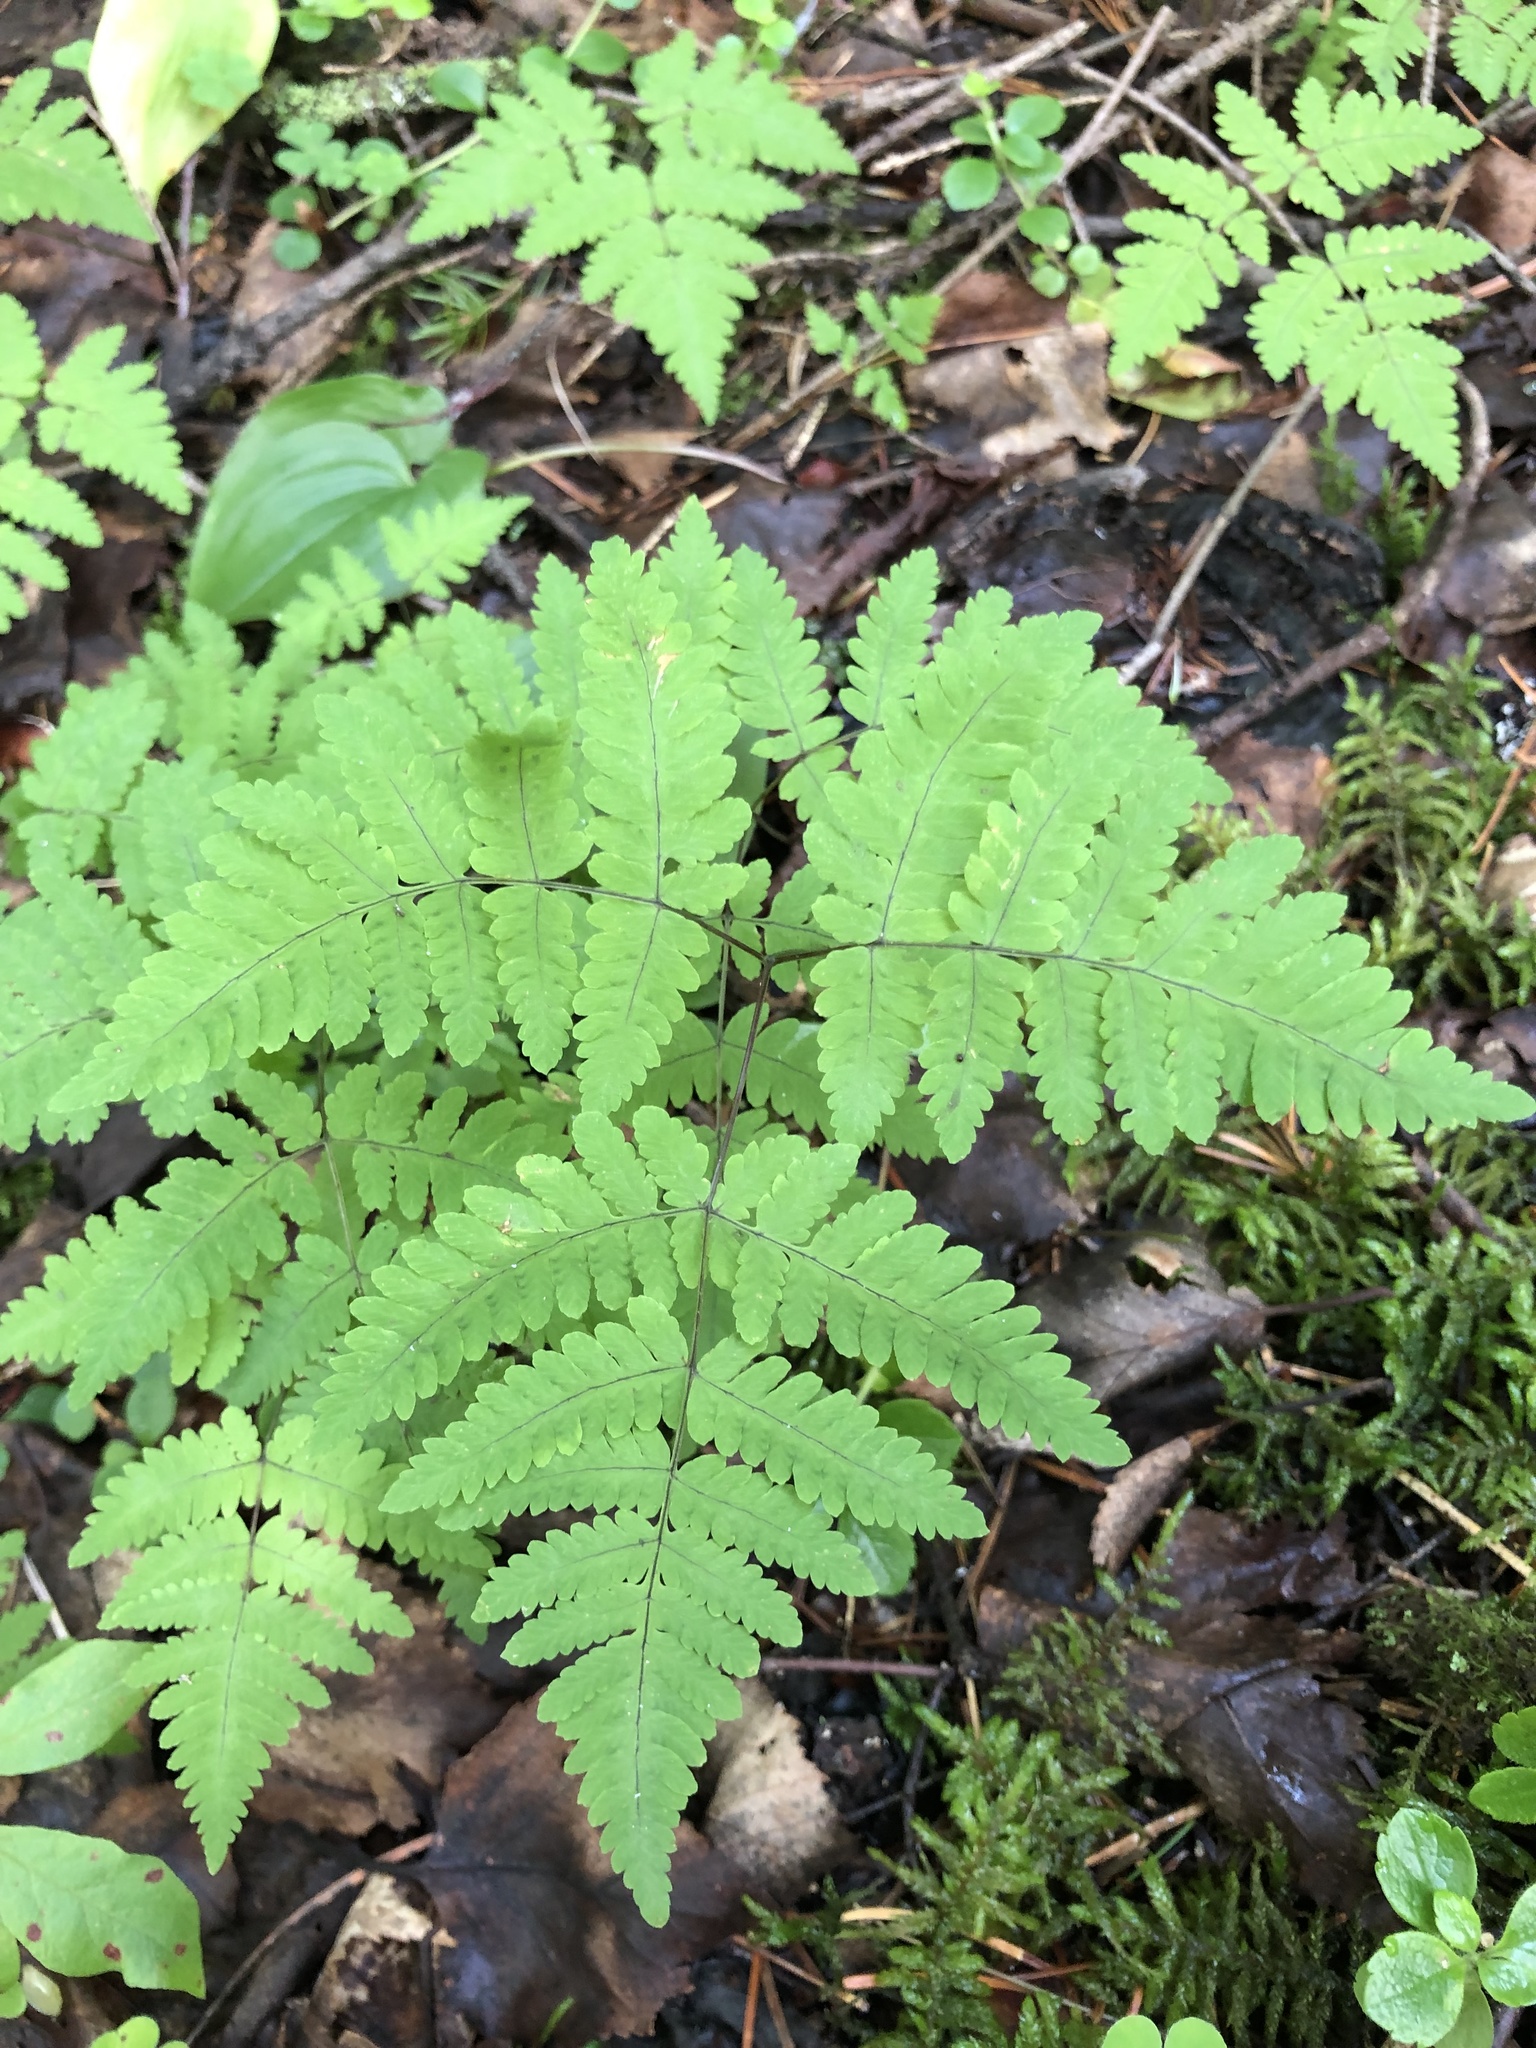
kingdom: Plantae
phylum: Tracheophyta
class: Polypodiopsida
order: Polypodiales
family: Cystopteridaceae
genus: Gymnocarpium
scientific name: Gymnocarpium dryopteris
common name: Oak fern
